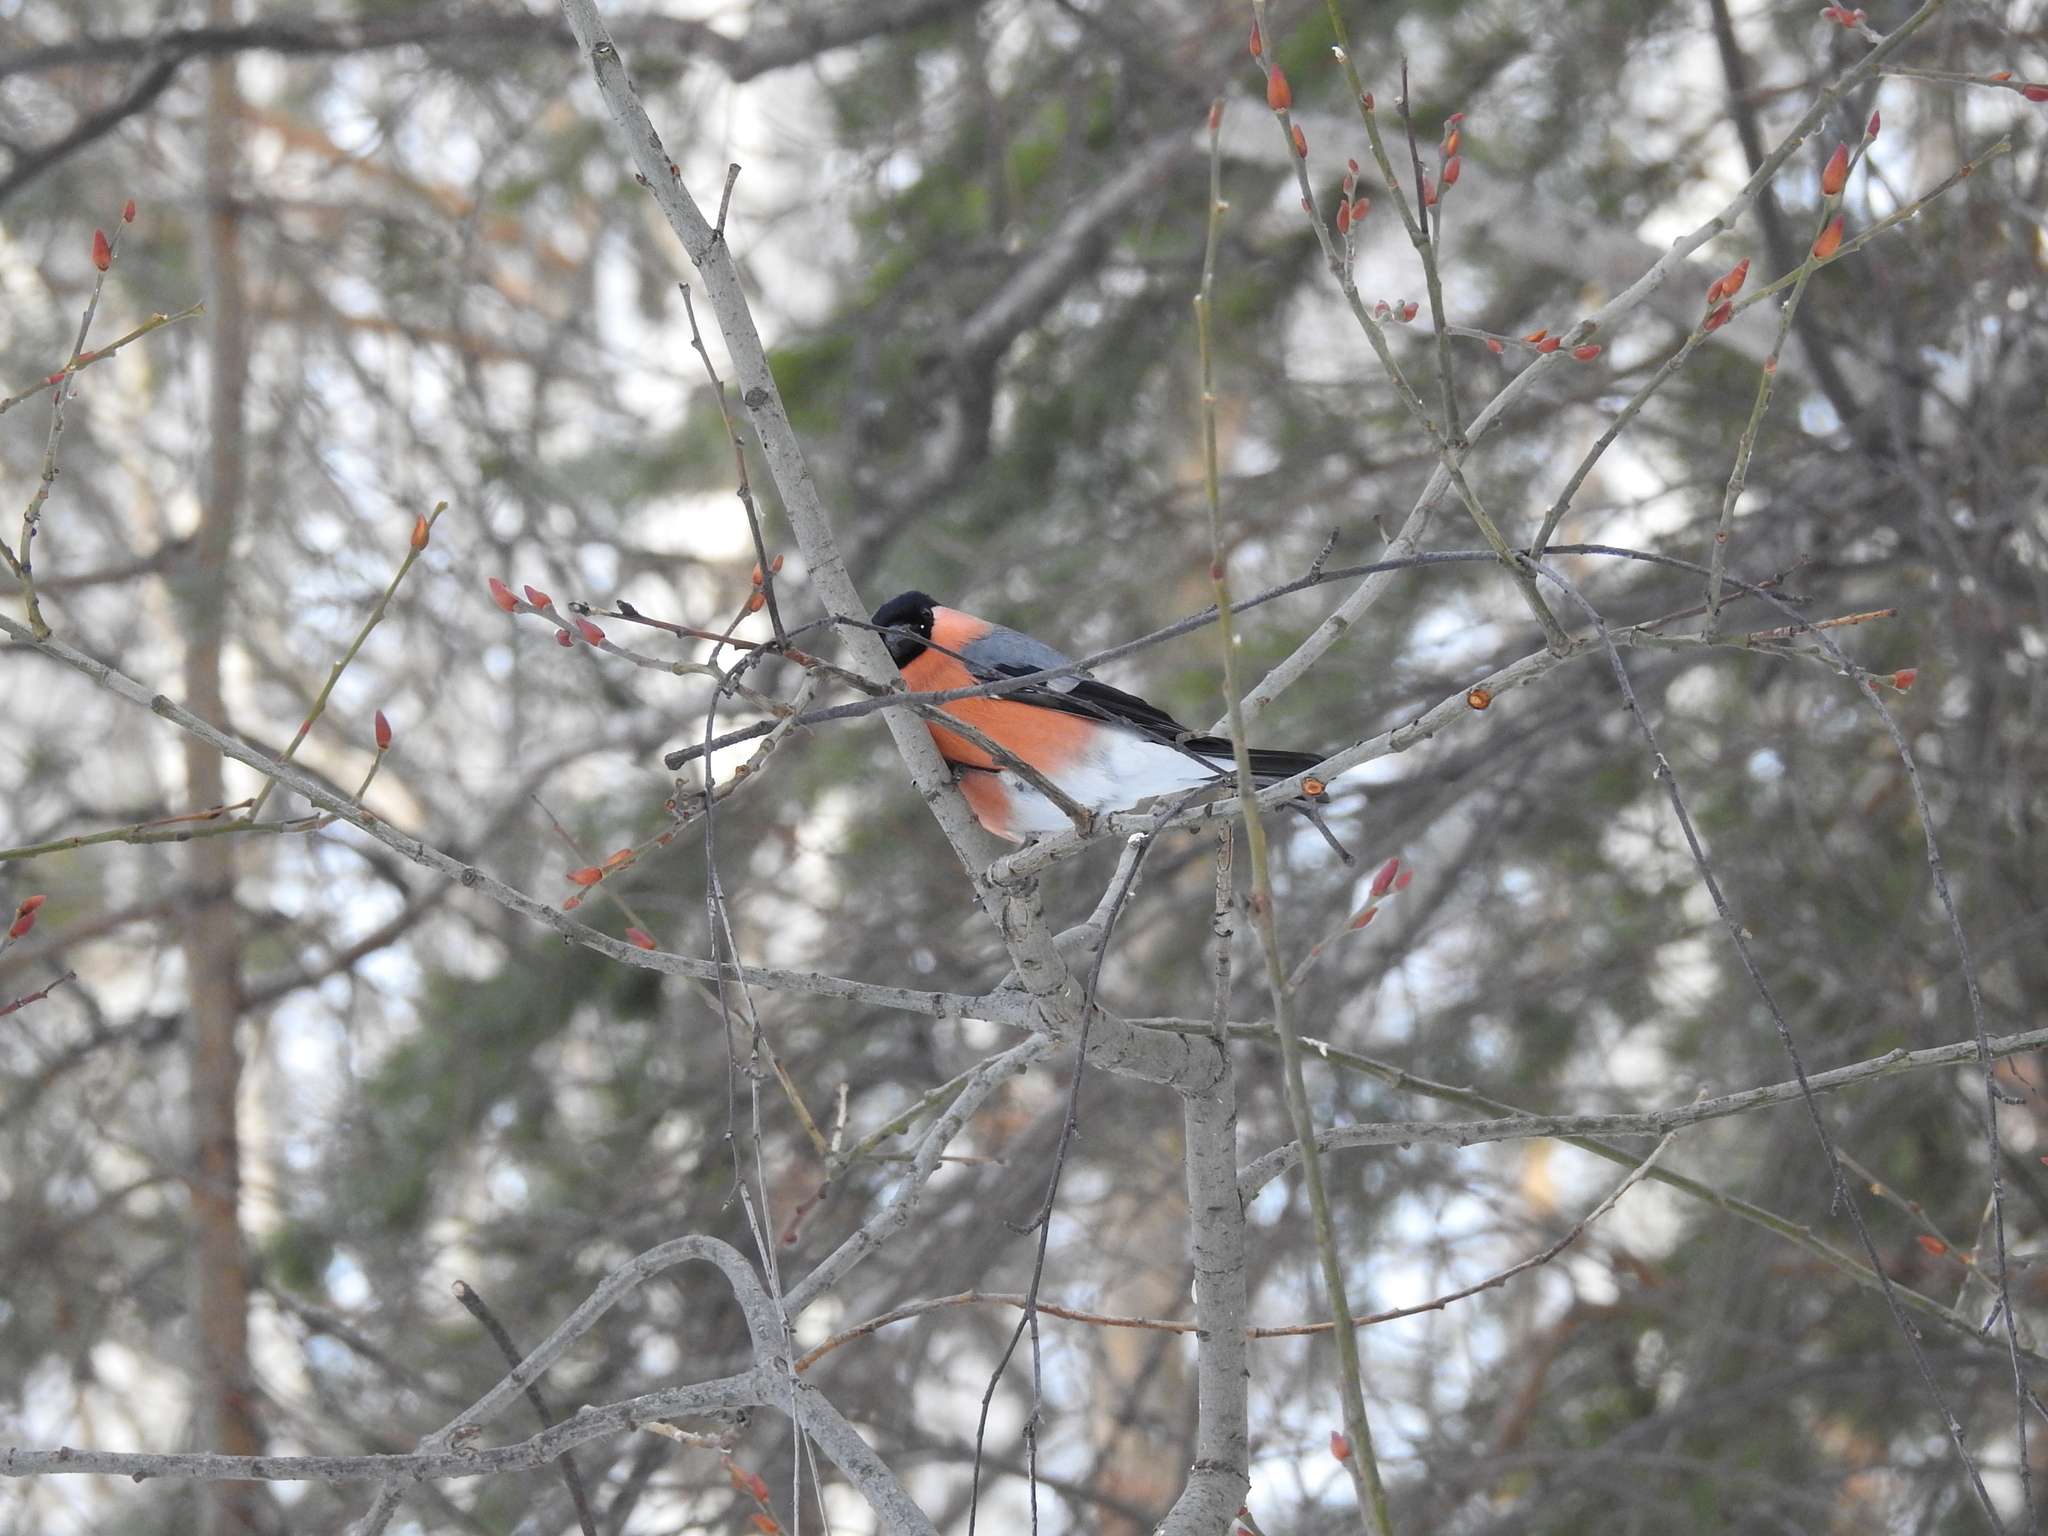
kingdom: Animalia
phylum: Chordata
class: Aves
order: Passeriformes
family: Fringillidae
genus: Pyrrhula
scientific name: Pyrrhula pyrrhula
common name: Eurasian bullfinch
